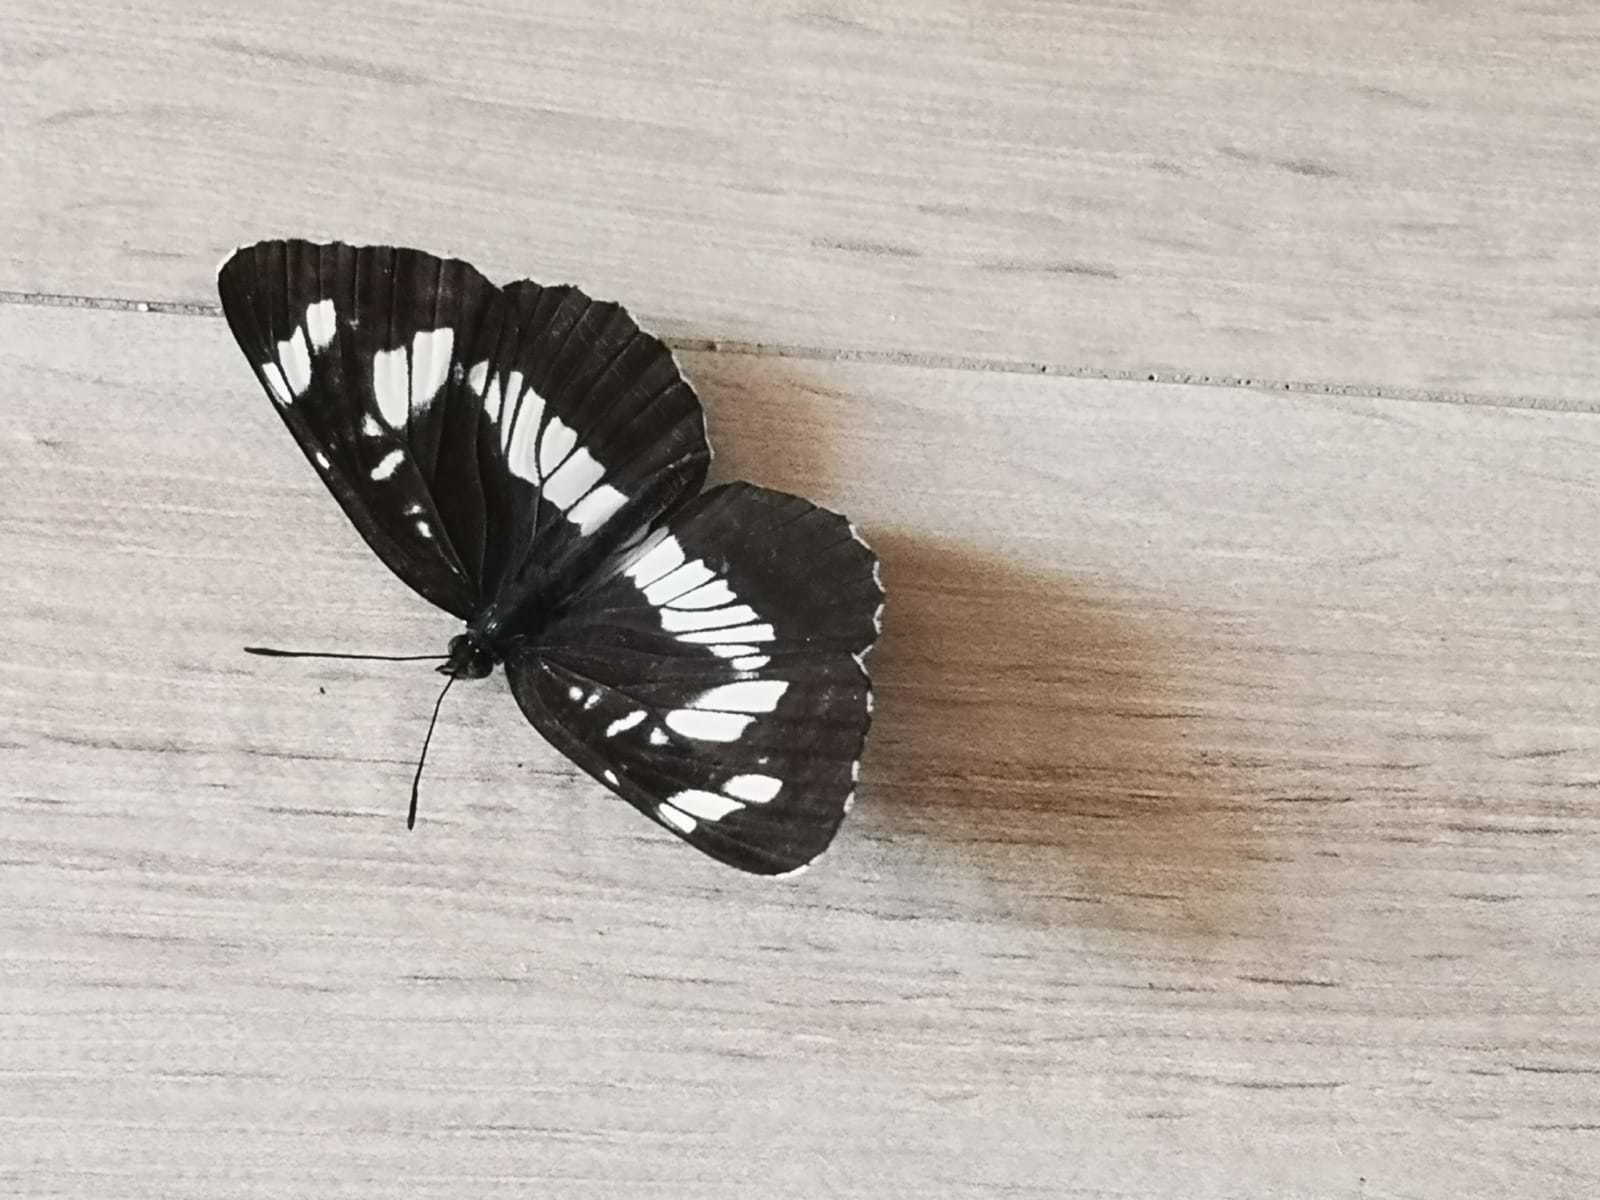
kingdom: Animalia
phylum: Arthropoda
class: Insecta
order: Lepidoptera
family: Nymphalidae
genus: Neptis
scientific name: Neptis rivularis
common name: Hungarian glider
